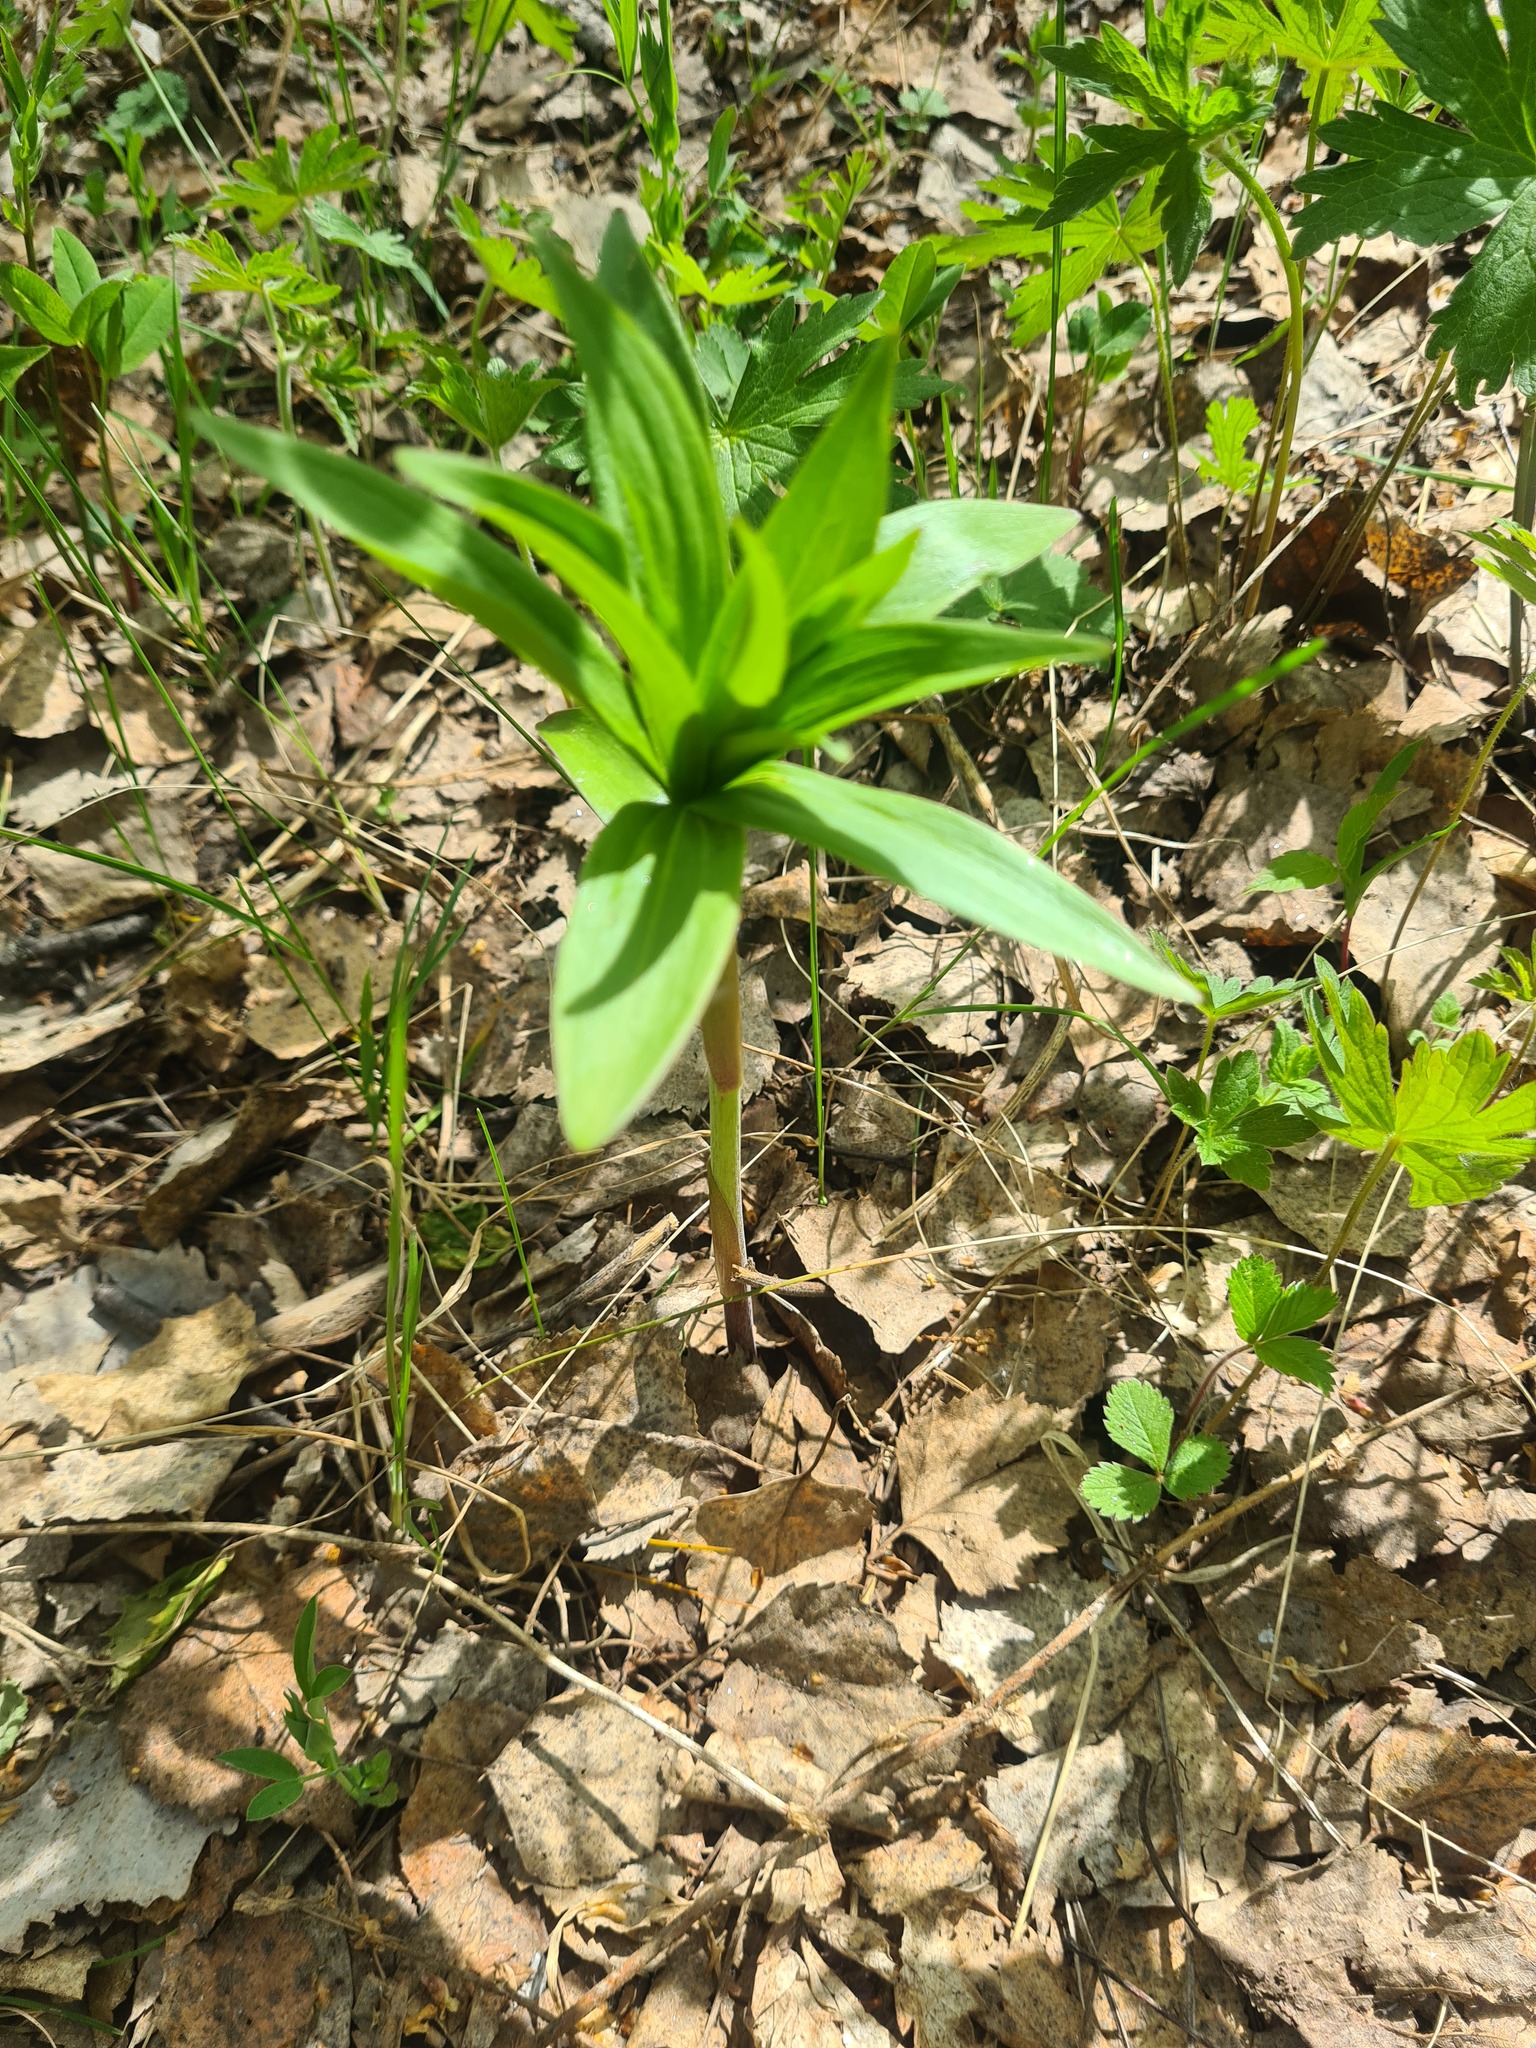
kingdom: Plantae
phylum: Tracheophyta
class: Liliopsida
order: Liliales
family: Liliaceae
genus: Lilium
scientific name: Lilium martagon
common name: Martagon lily
